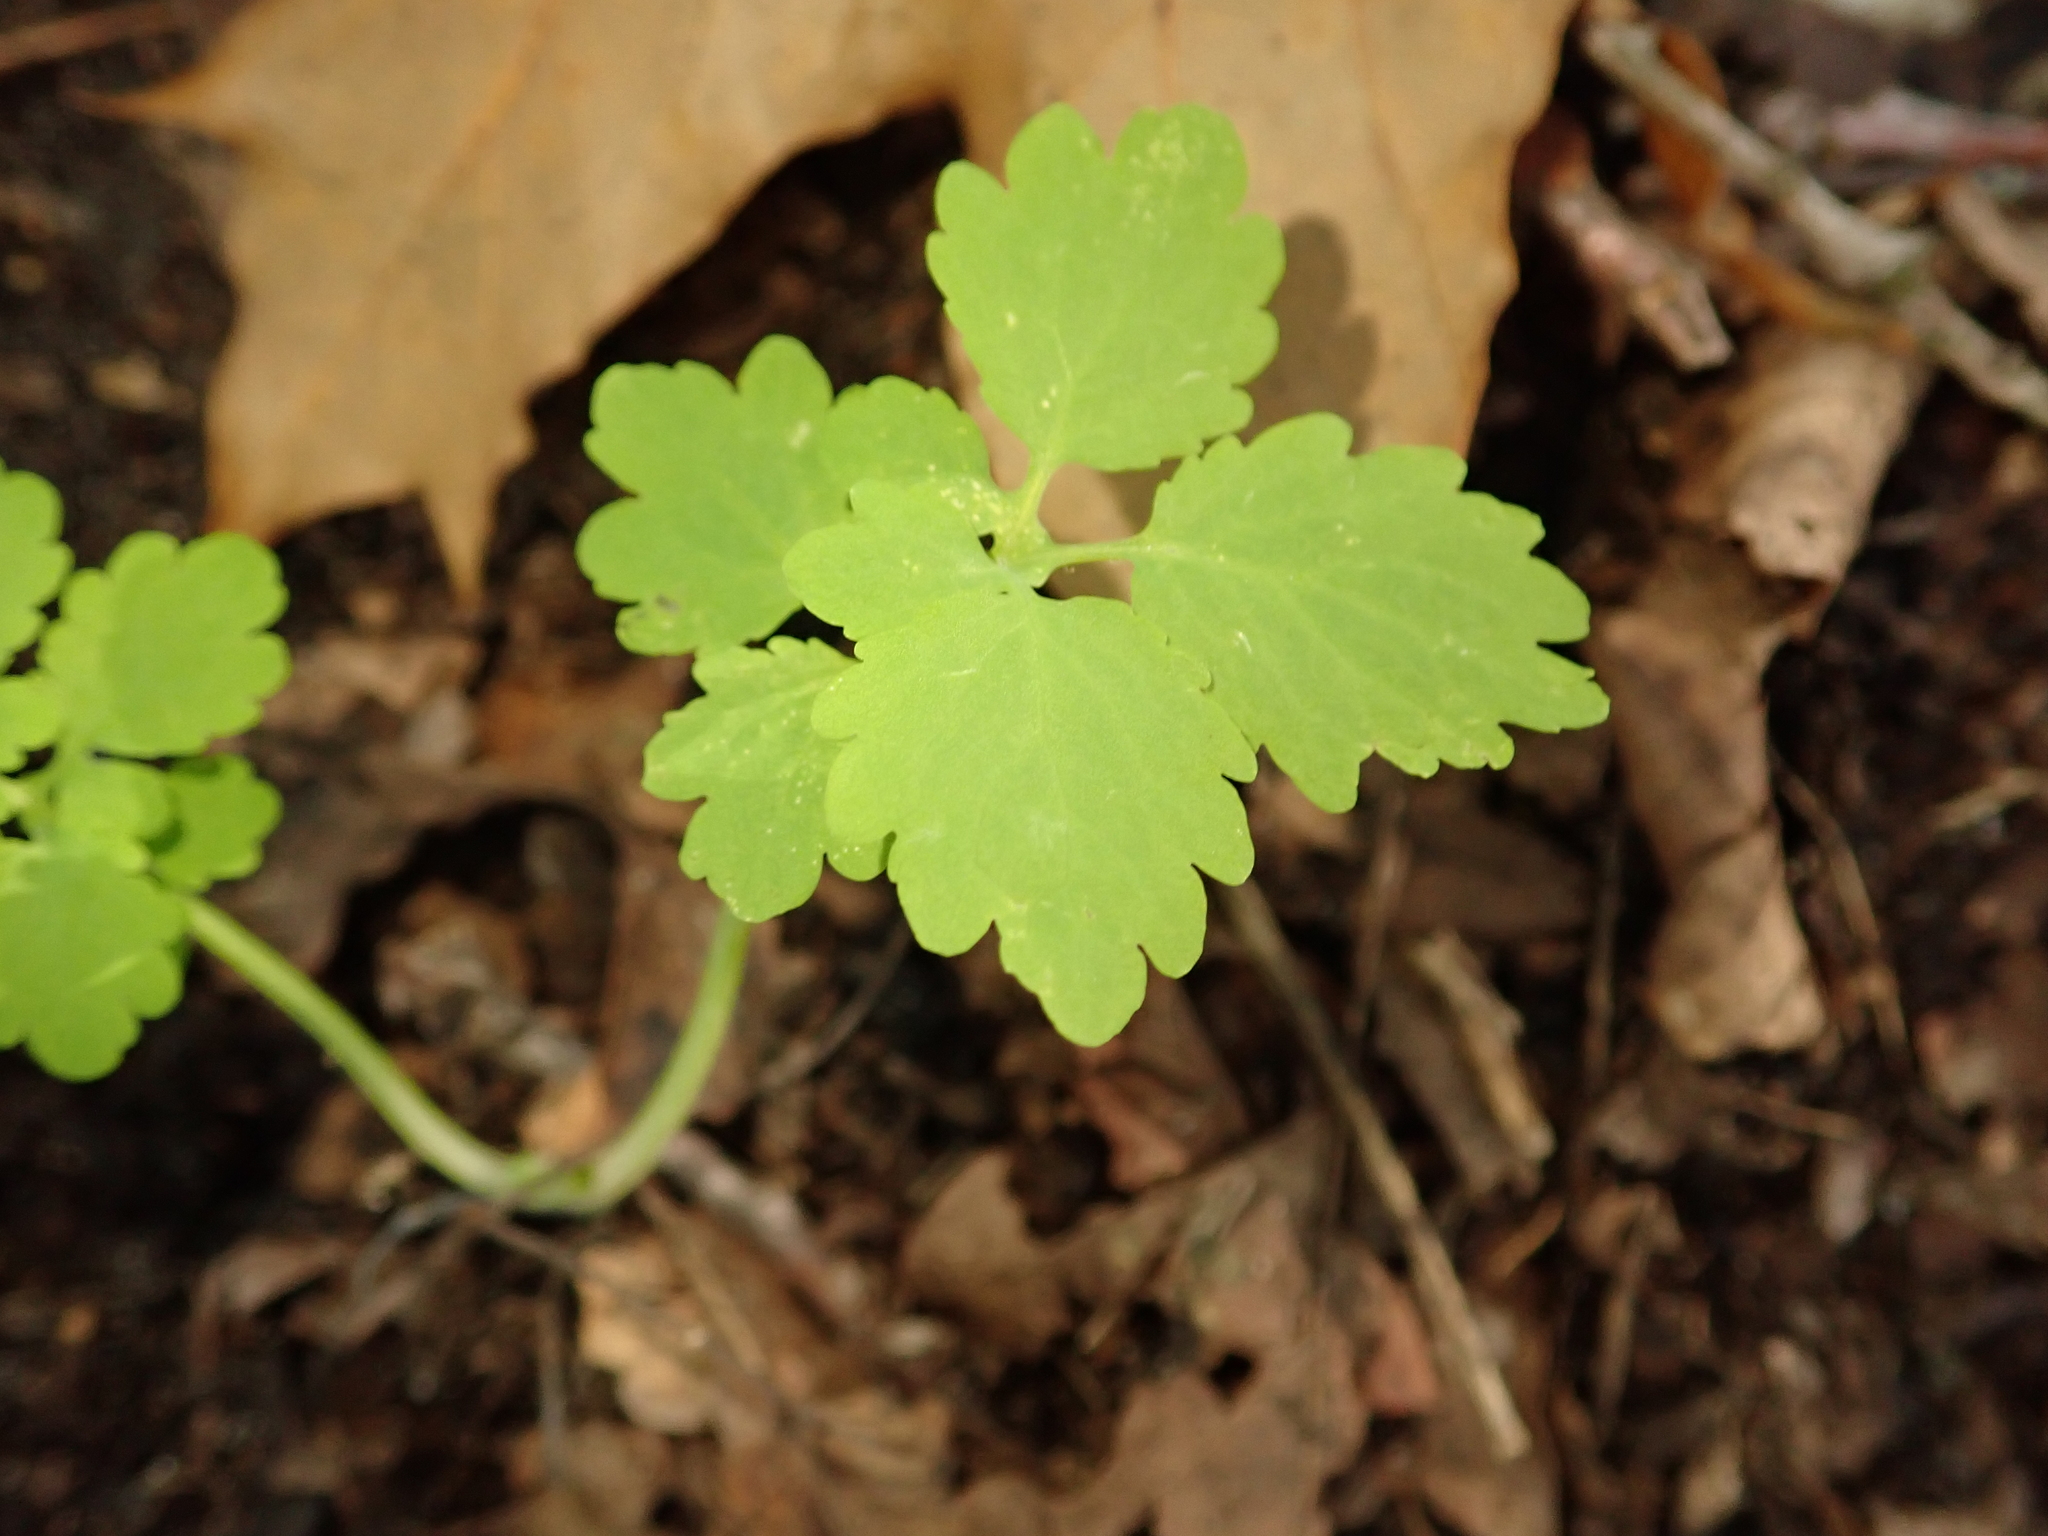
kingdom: Plantae
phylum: Tracheophyta
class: Magnoliopsida
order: Ranunculales
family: Papaveraceae
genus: Chelidonium
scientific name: Chelidonium majus
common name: Greater celandine
